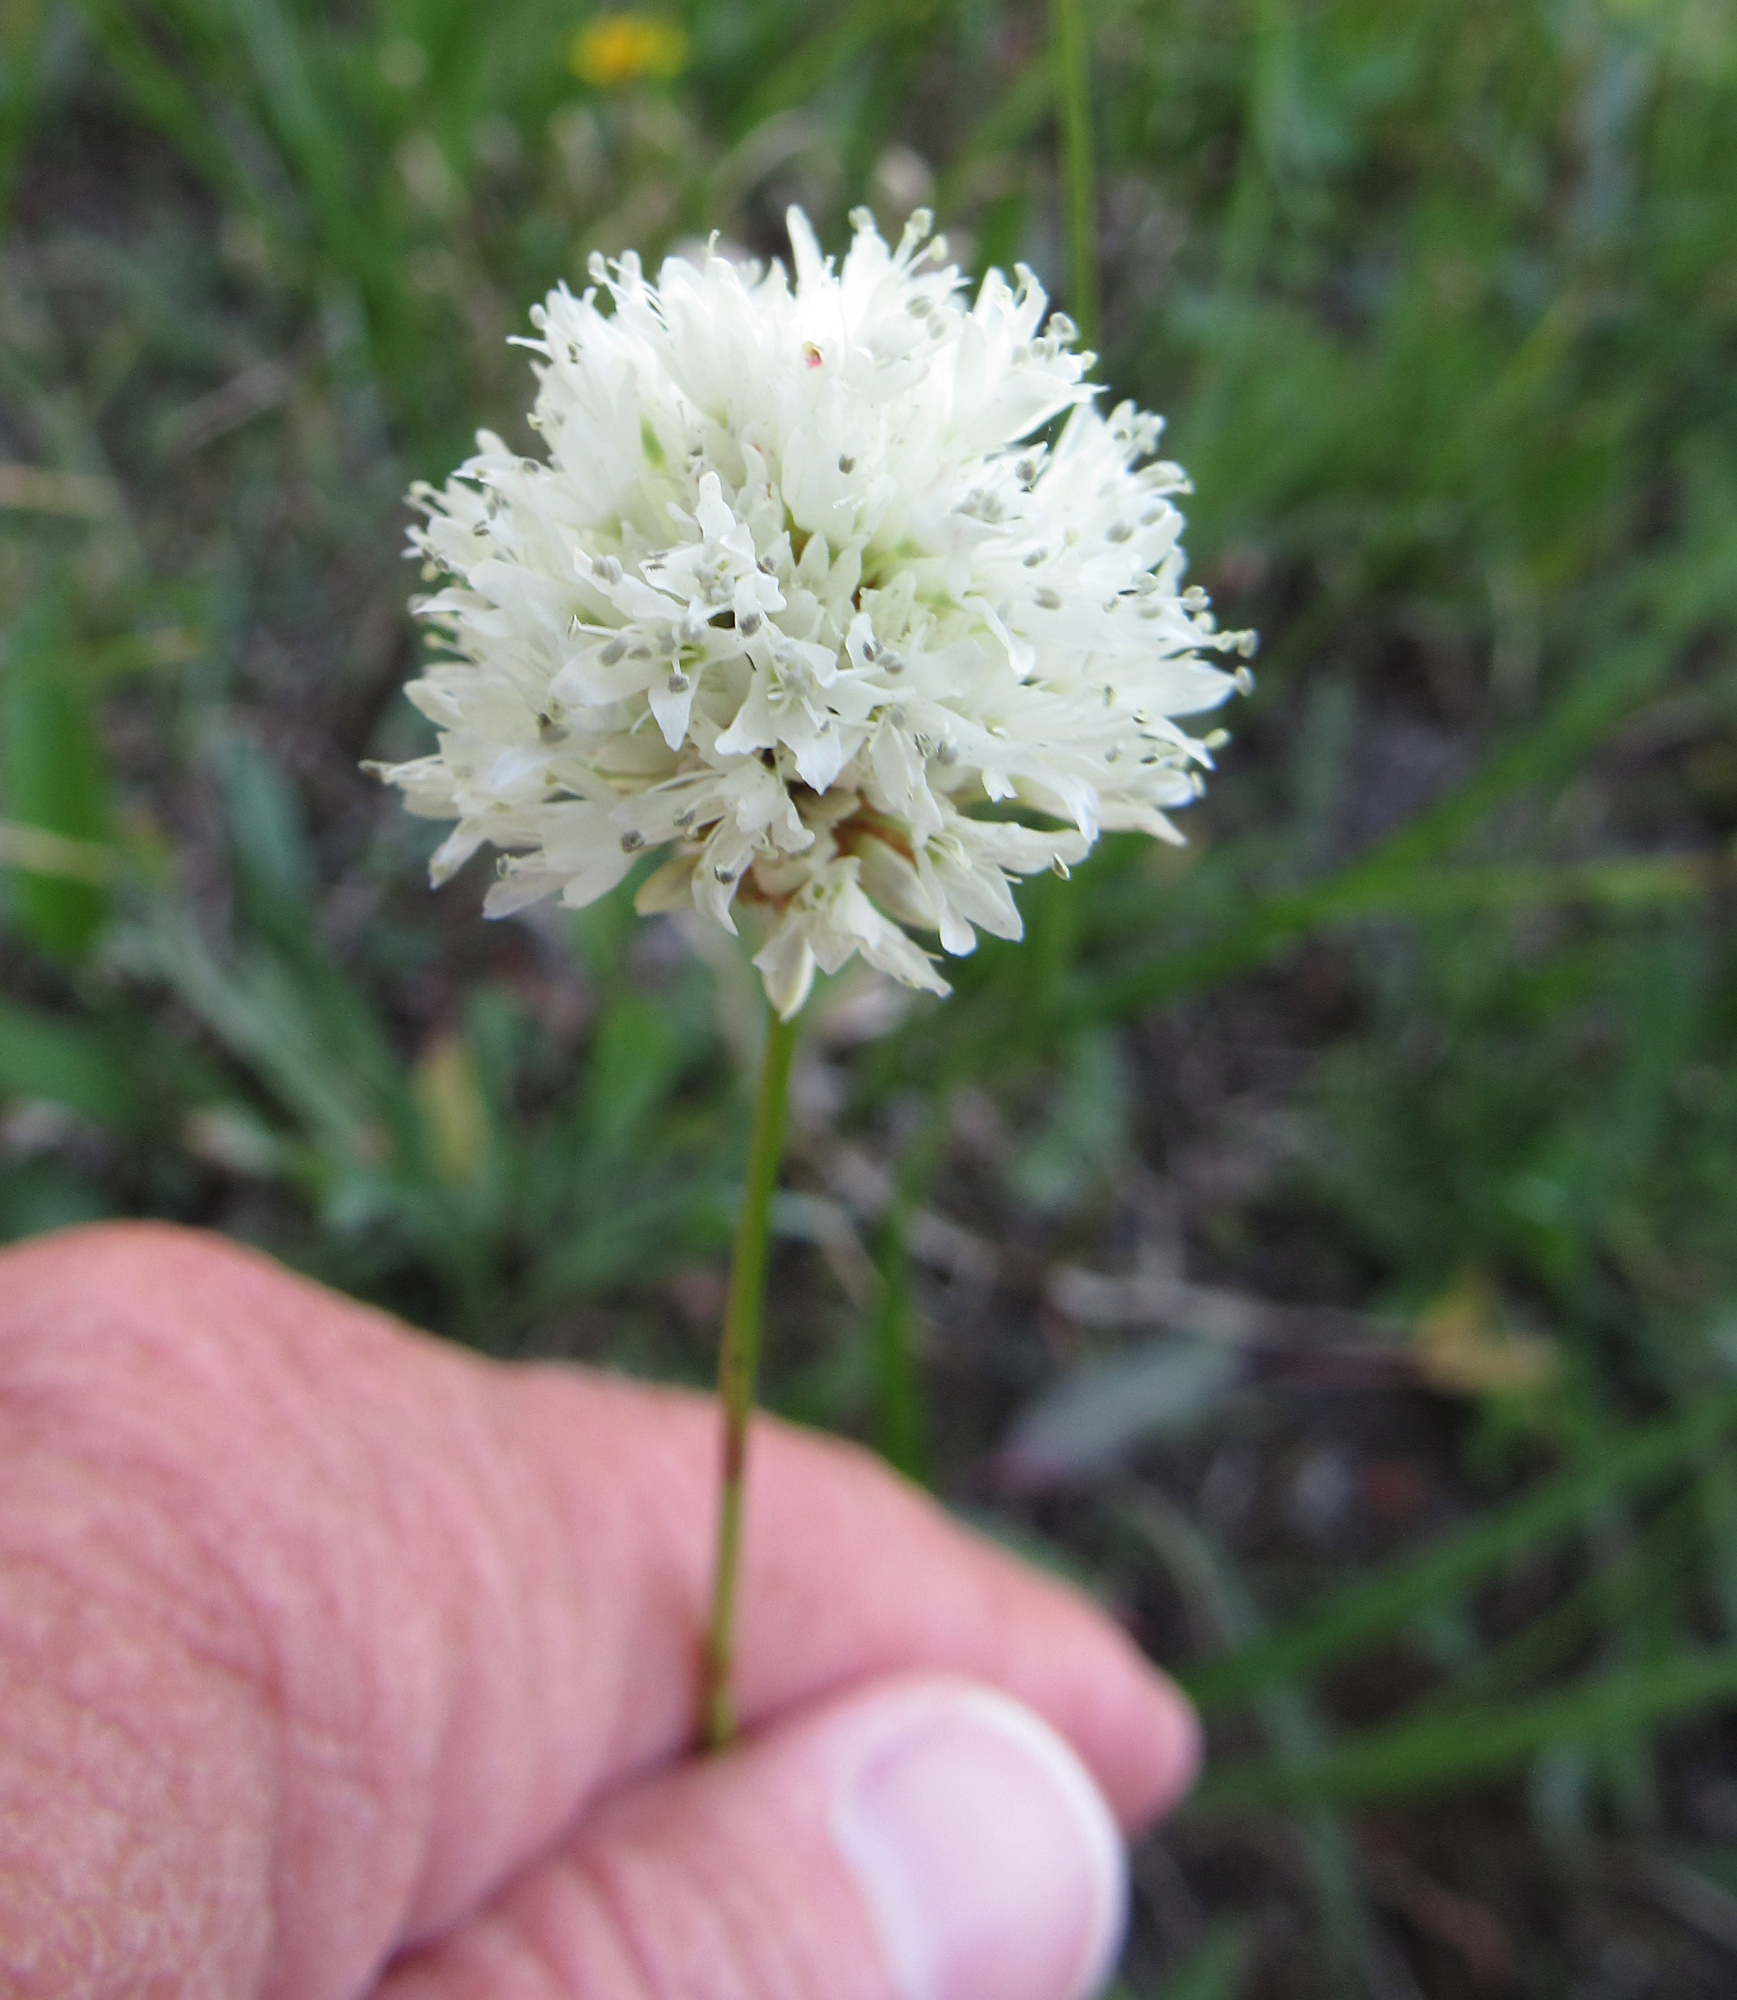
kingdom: Plantae
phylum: Tracheophyta
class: Magnoliopsida
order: Caryophyllales
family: Polygonaceae
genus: Bistorta
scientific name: Bistorta bistortoides
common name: American bistort
